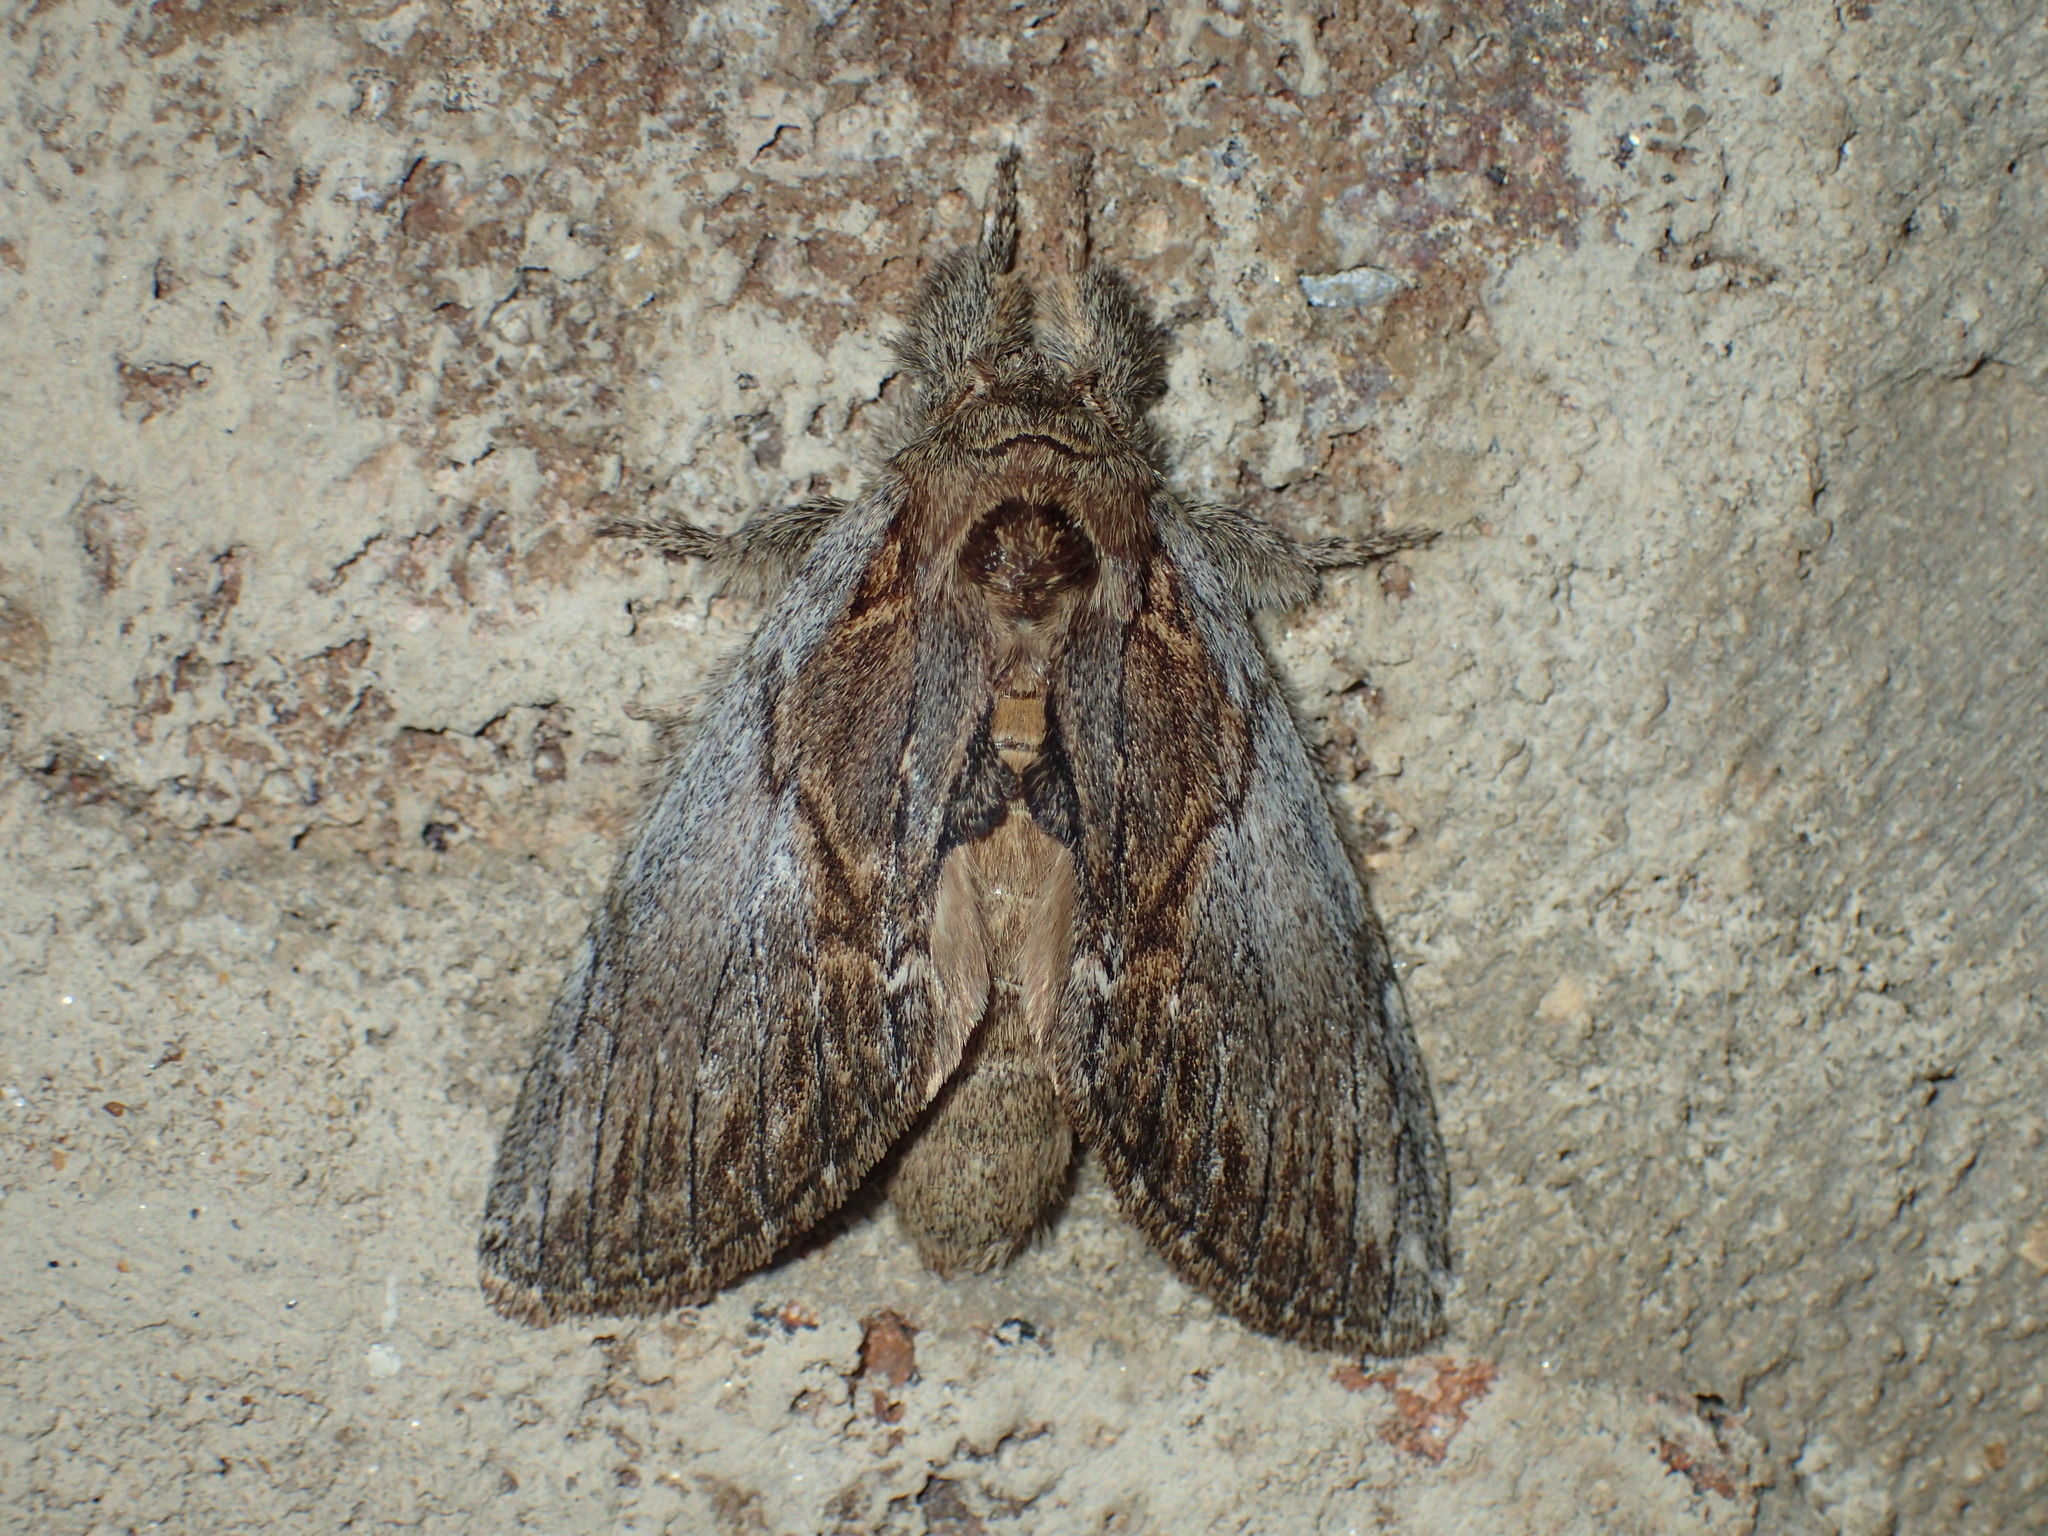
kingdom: Animalia
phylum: Arthropoda
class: Insecta
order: Lepidoptera
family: Notodontidae
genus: Peridea
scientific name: Peridea basitriens
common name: Oval-based prominent
